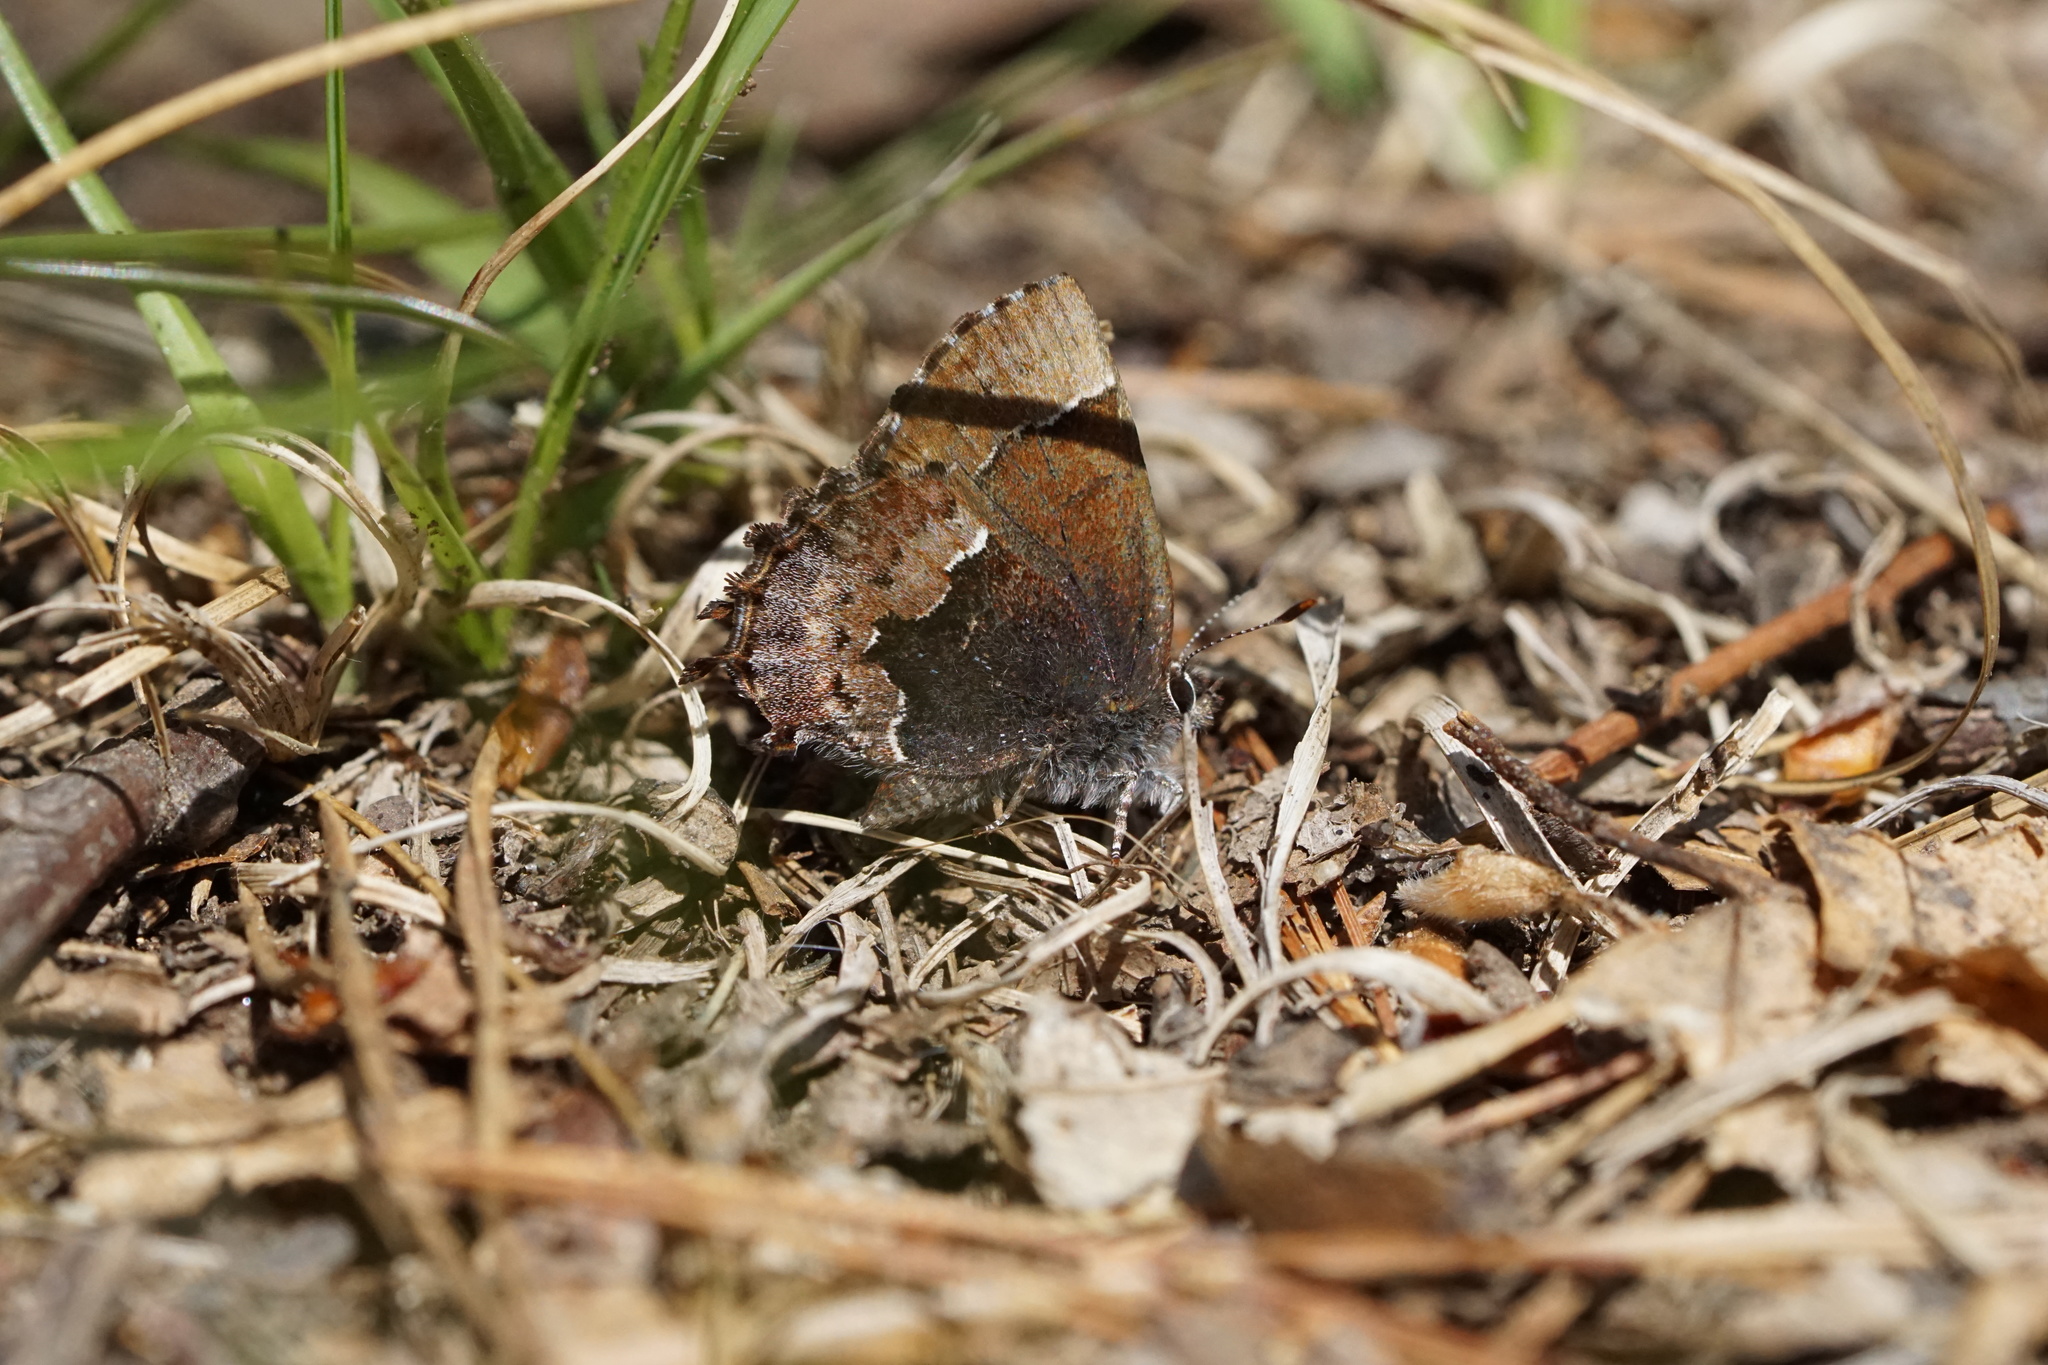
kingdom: Animalia
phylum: Arthropoda
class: Insecta
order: Lepidoptera
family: Lycaenidae
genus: Incisalia
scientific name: Incisalia henrici
